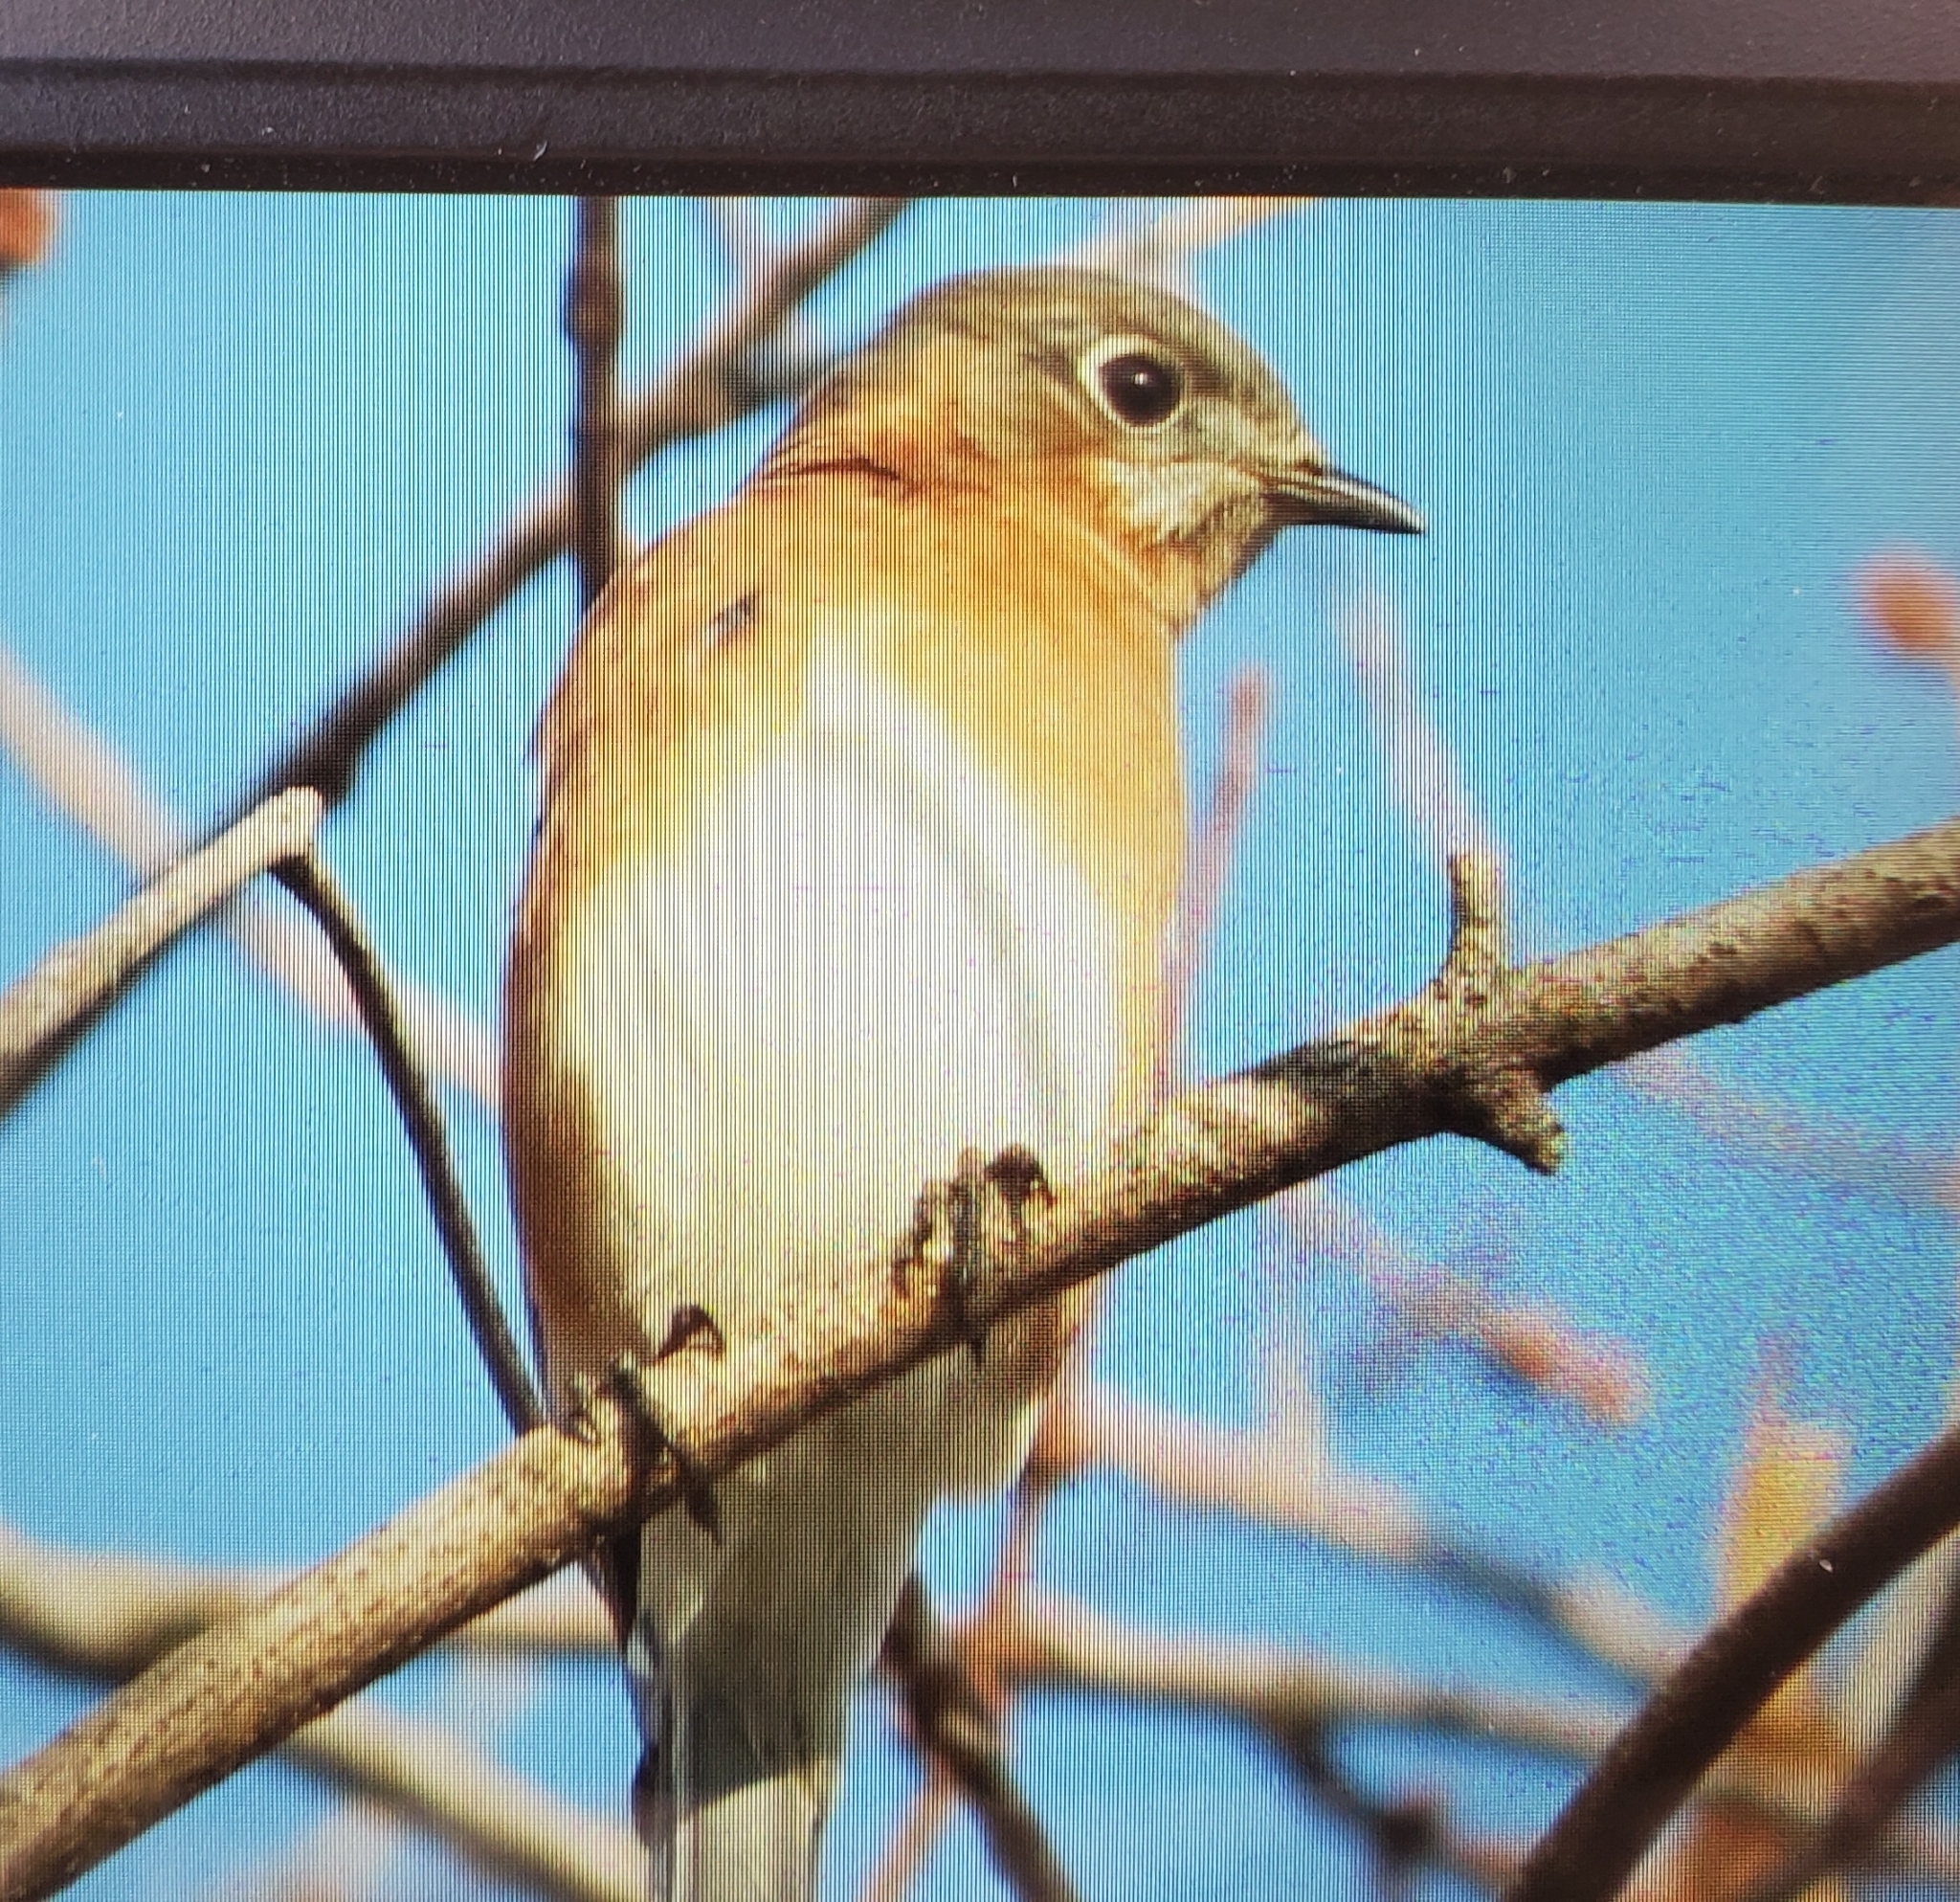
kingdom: Animalia
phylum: Chordata
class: Aves
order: Passeriformes
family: Turdidae
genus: Sialia
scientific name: Sialia sialis
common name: Eastern bluebird
